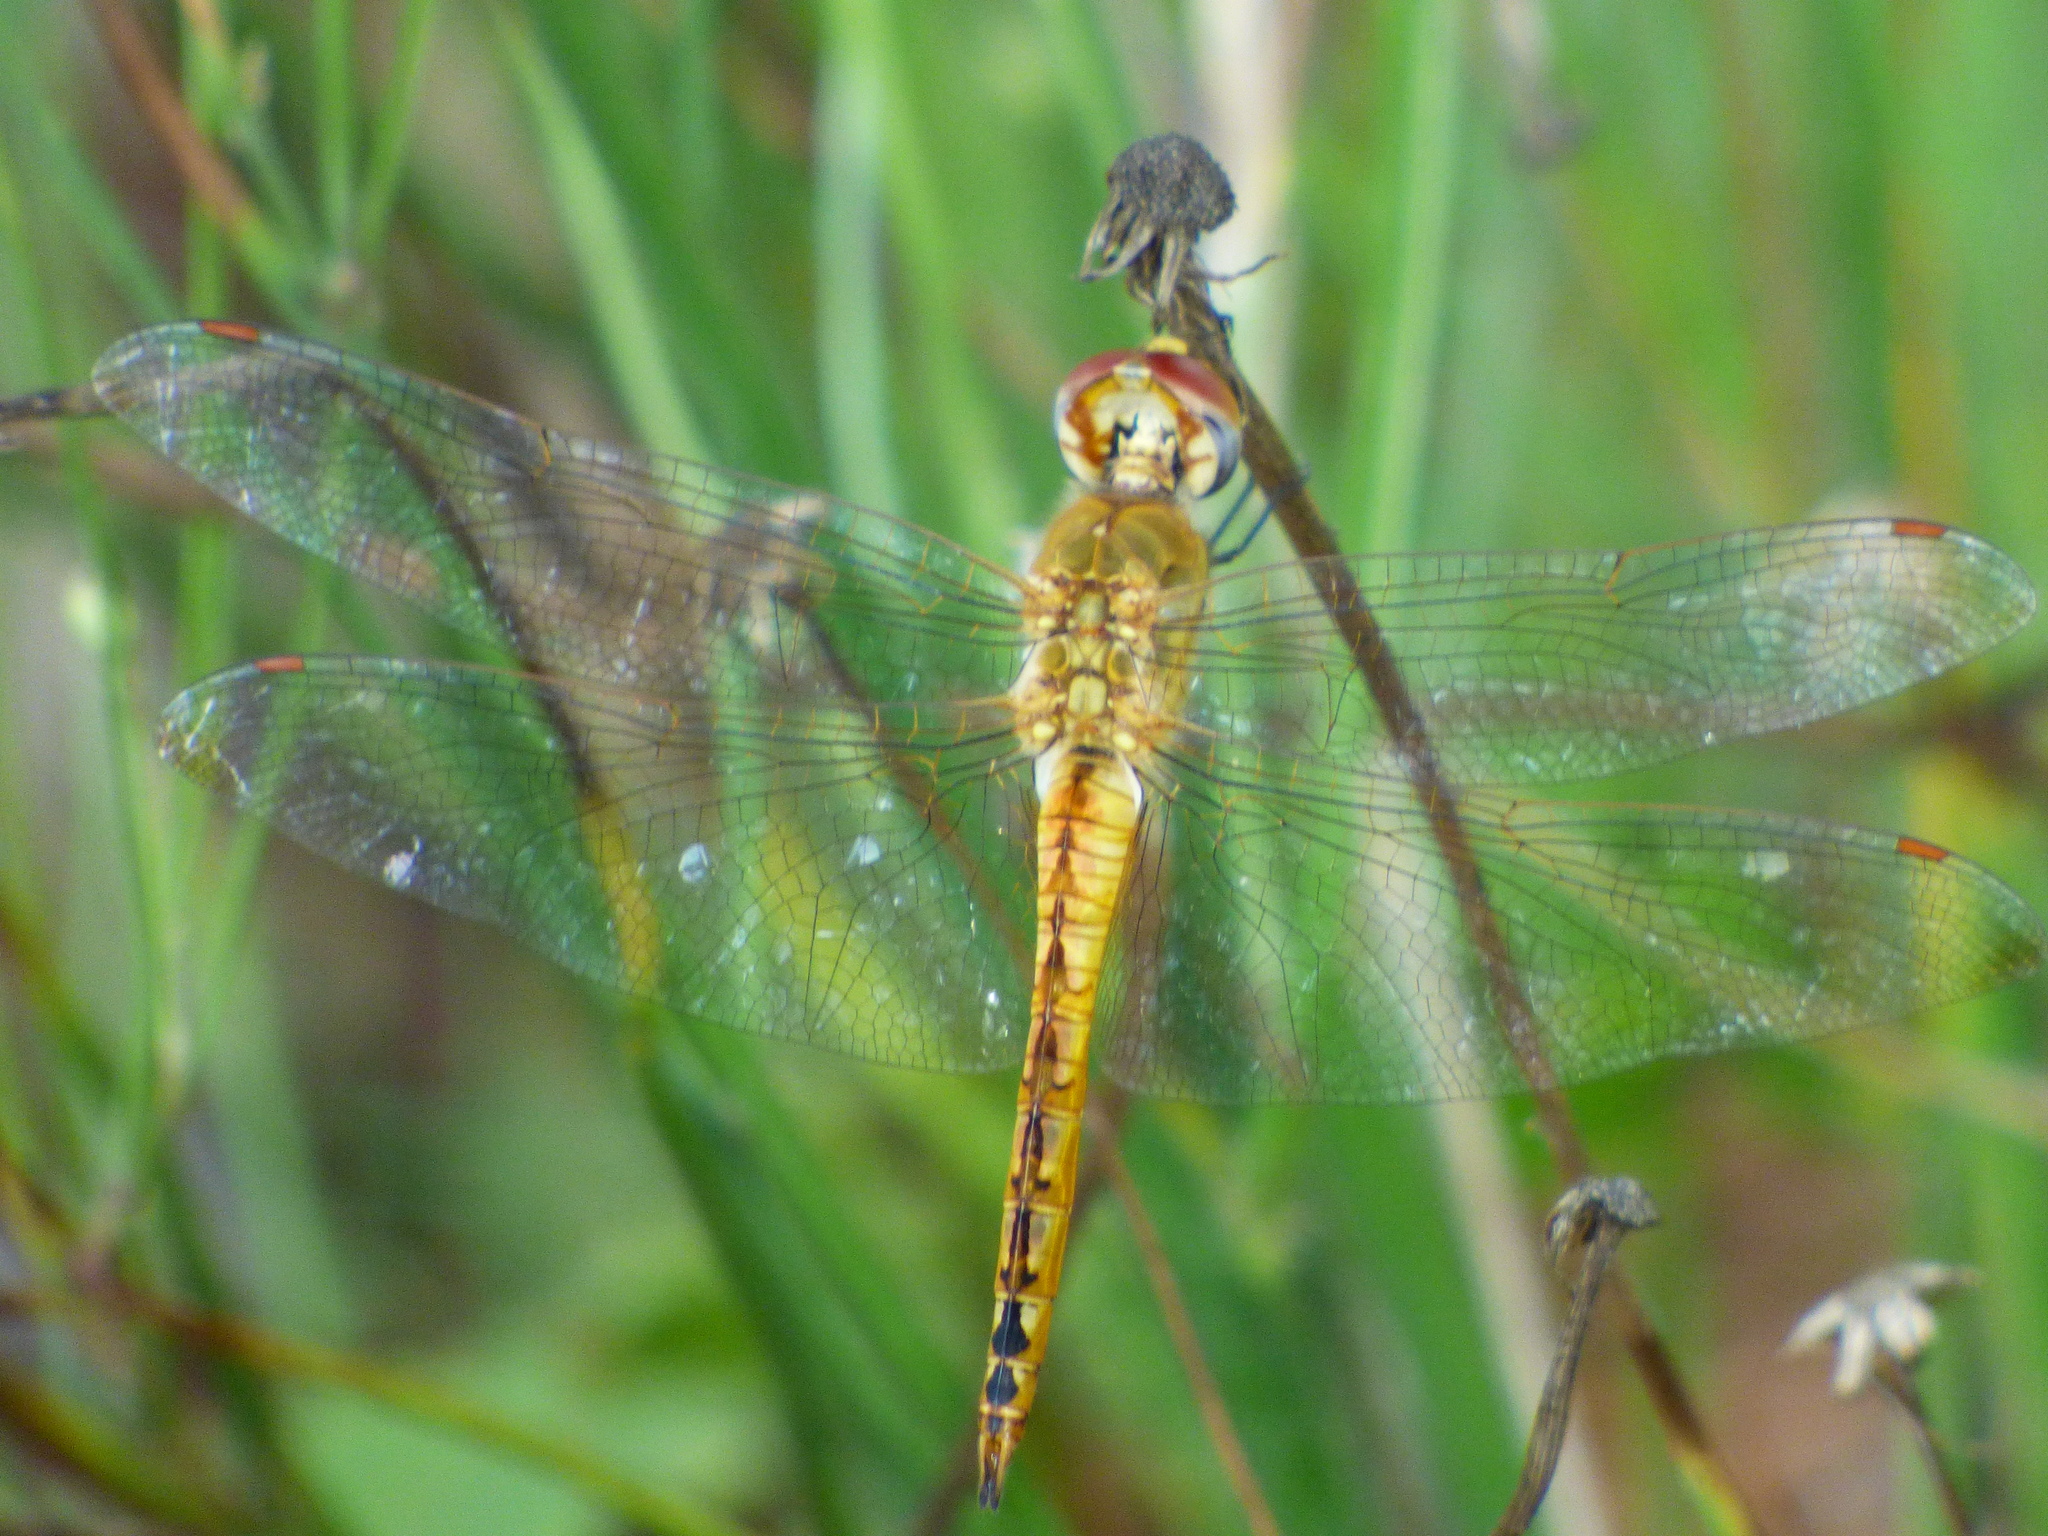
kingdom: Animalia
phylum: Arthropoda
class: Insecta
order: Odonata
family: Libellulidae
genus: Pantala
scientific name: Pantala flavescens
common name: Wandering glider
